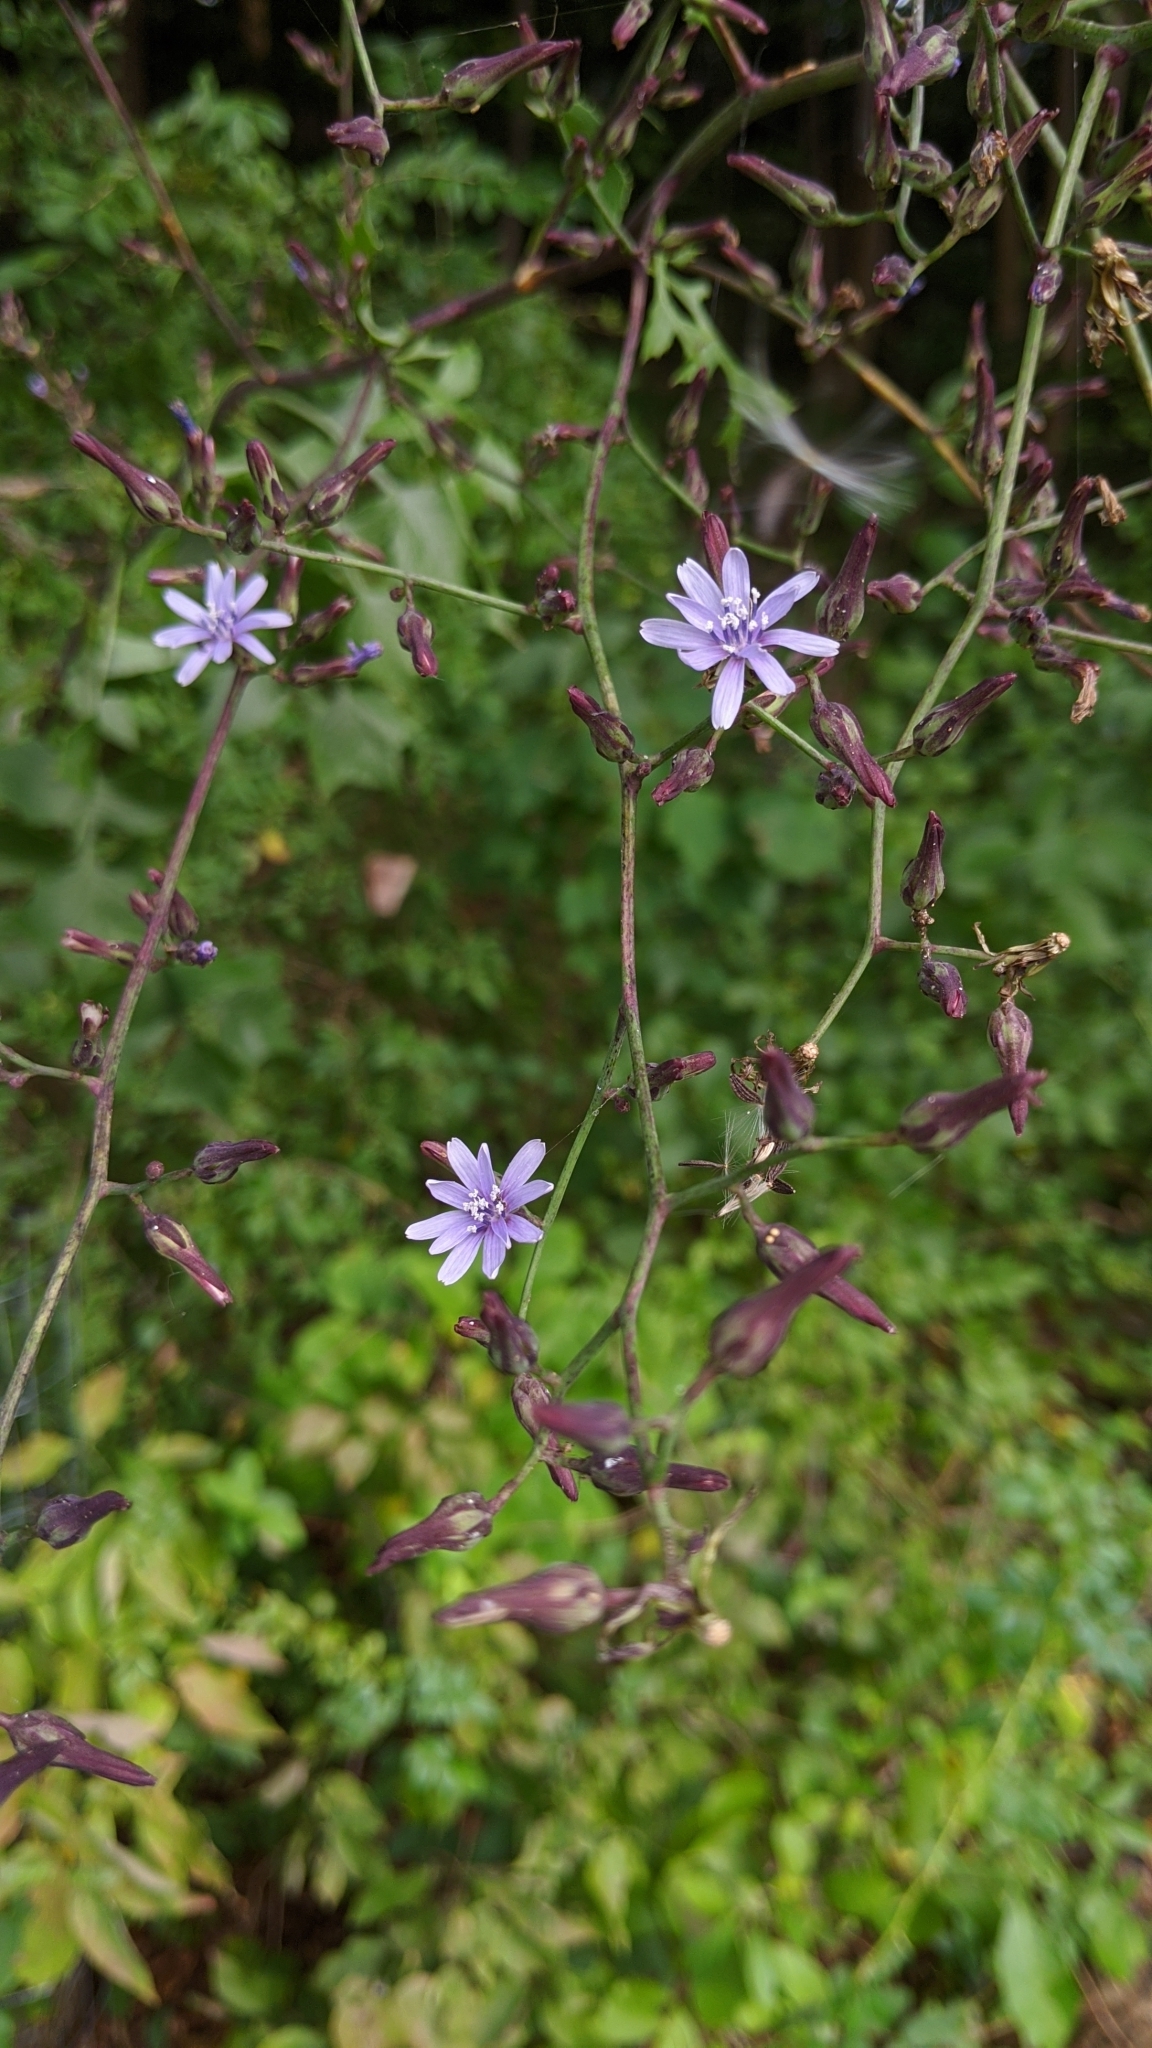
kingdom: Plantae
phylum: Tracheophyta
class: Magnoliopsida
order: Asterales
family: Asteraceae
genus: Lactuca
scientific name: Lactuca floridana
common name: Woodland lettuce
